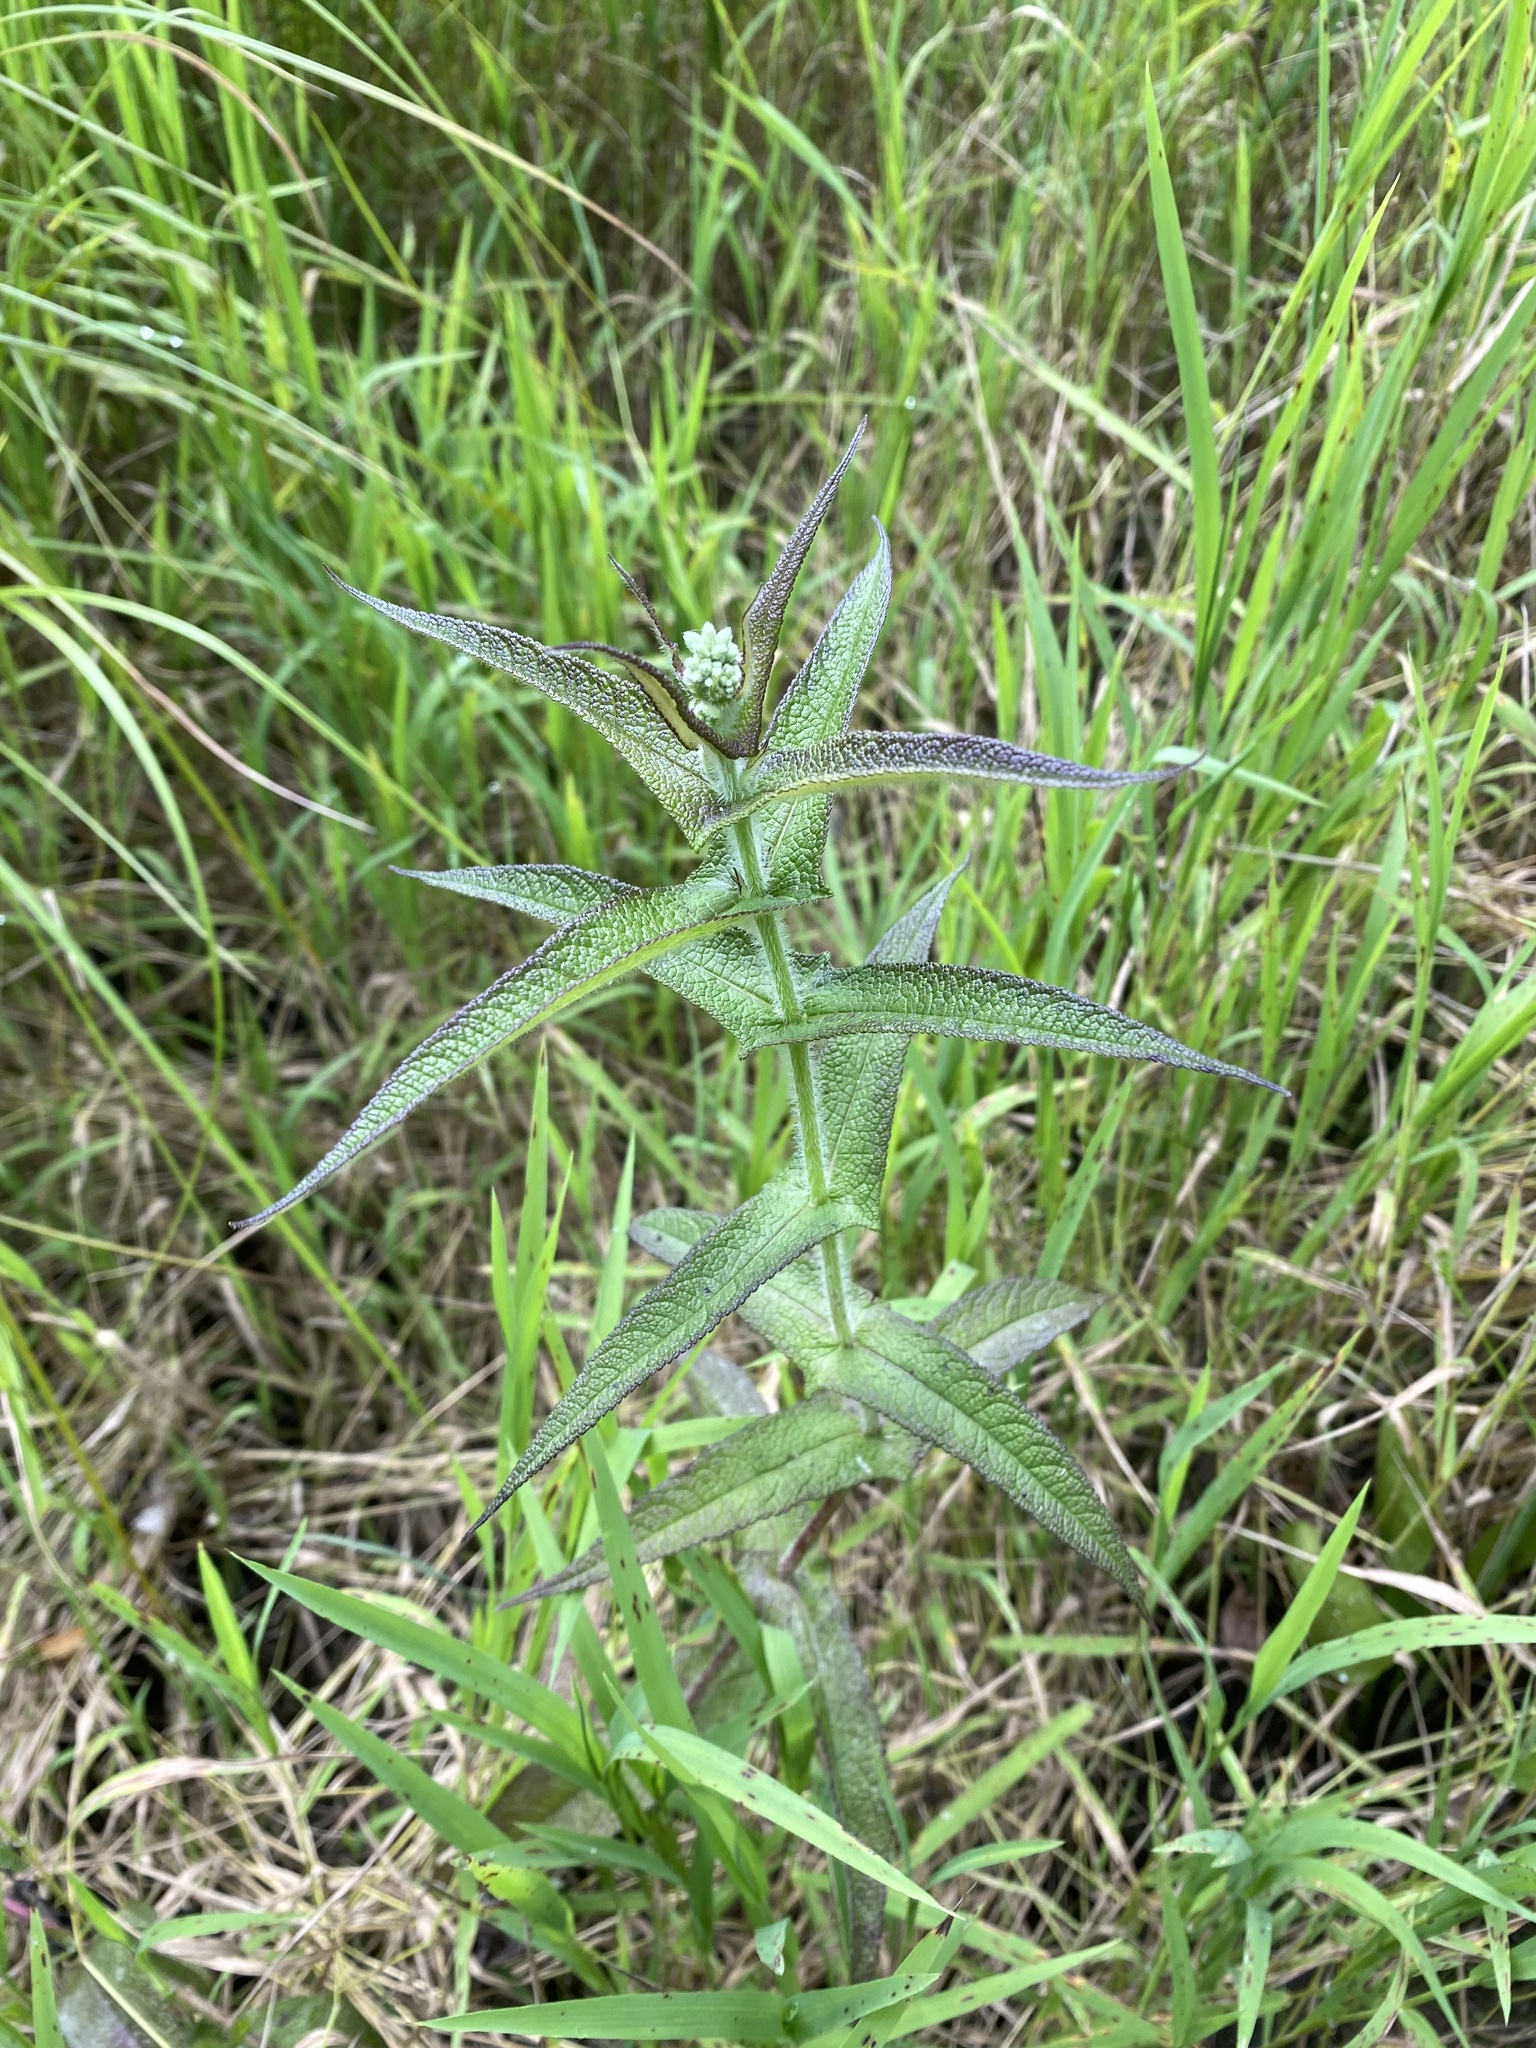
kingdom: Plantae
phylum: Tracheophyta
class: Magnoliopsida
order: Asterales
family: Asteraceae
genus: Eupatorium
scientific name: Eupatorium perfoliatum
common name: Boneset
